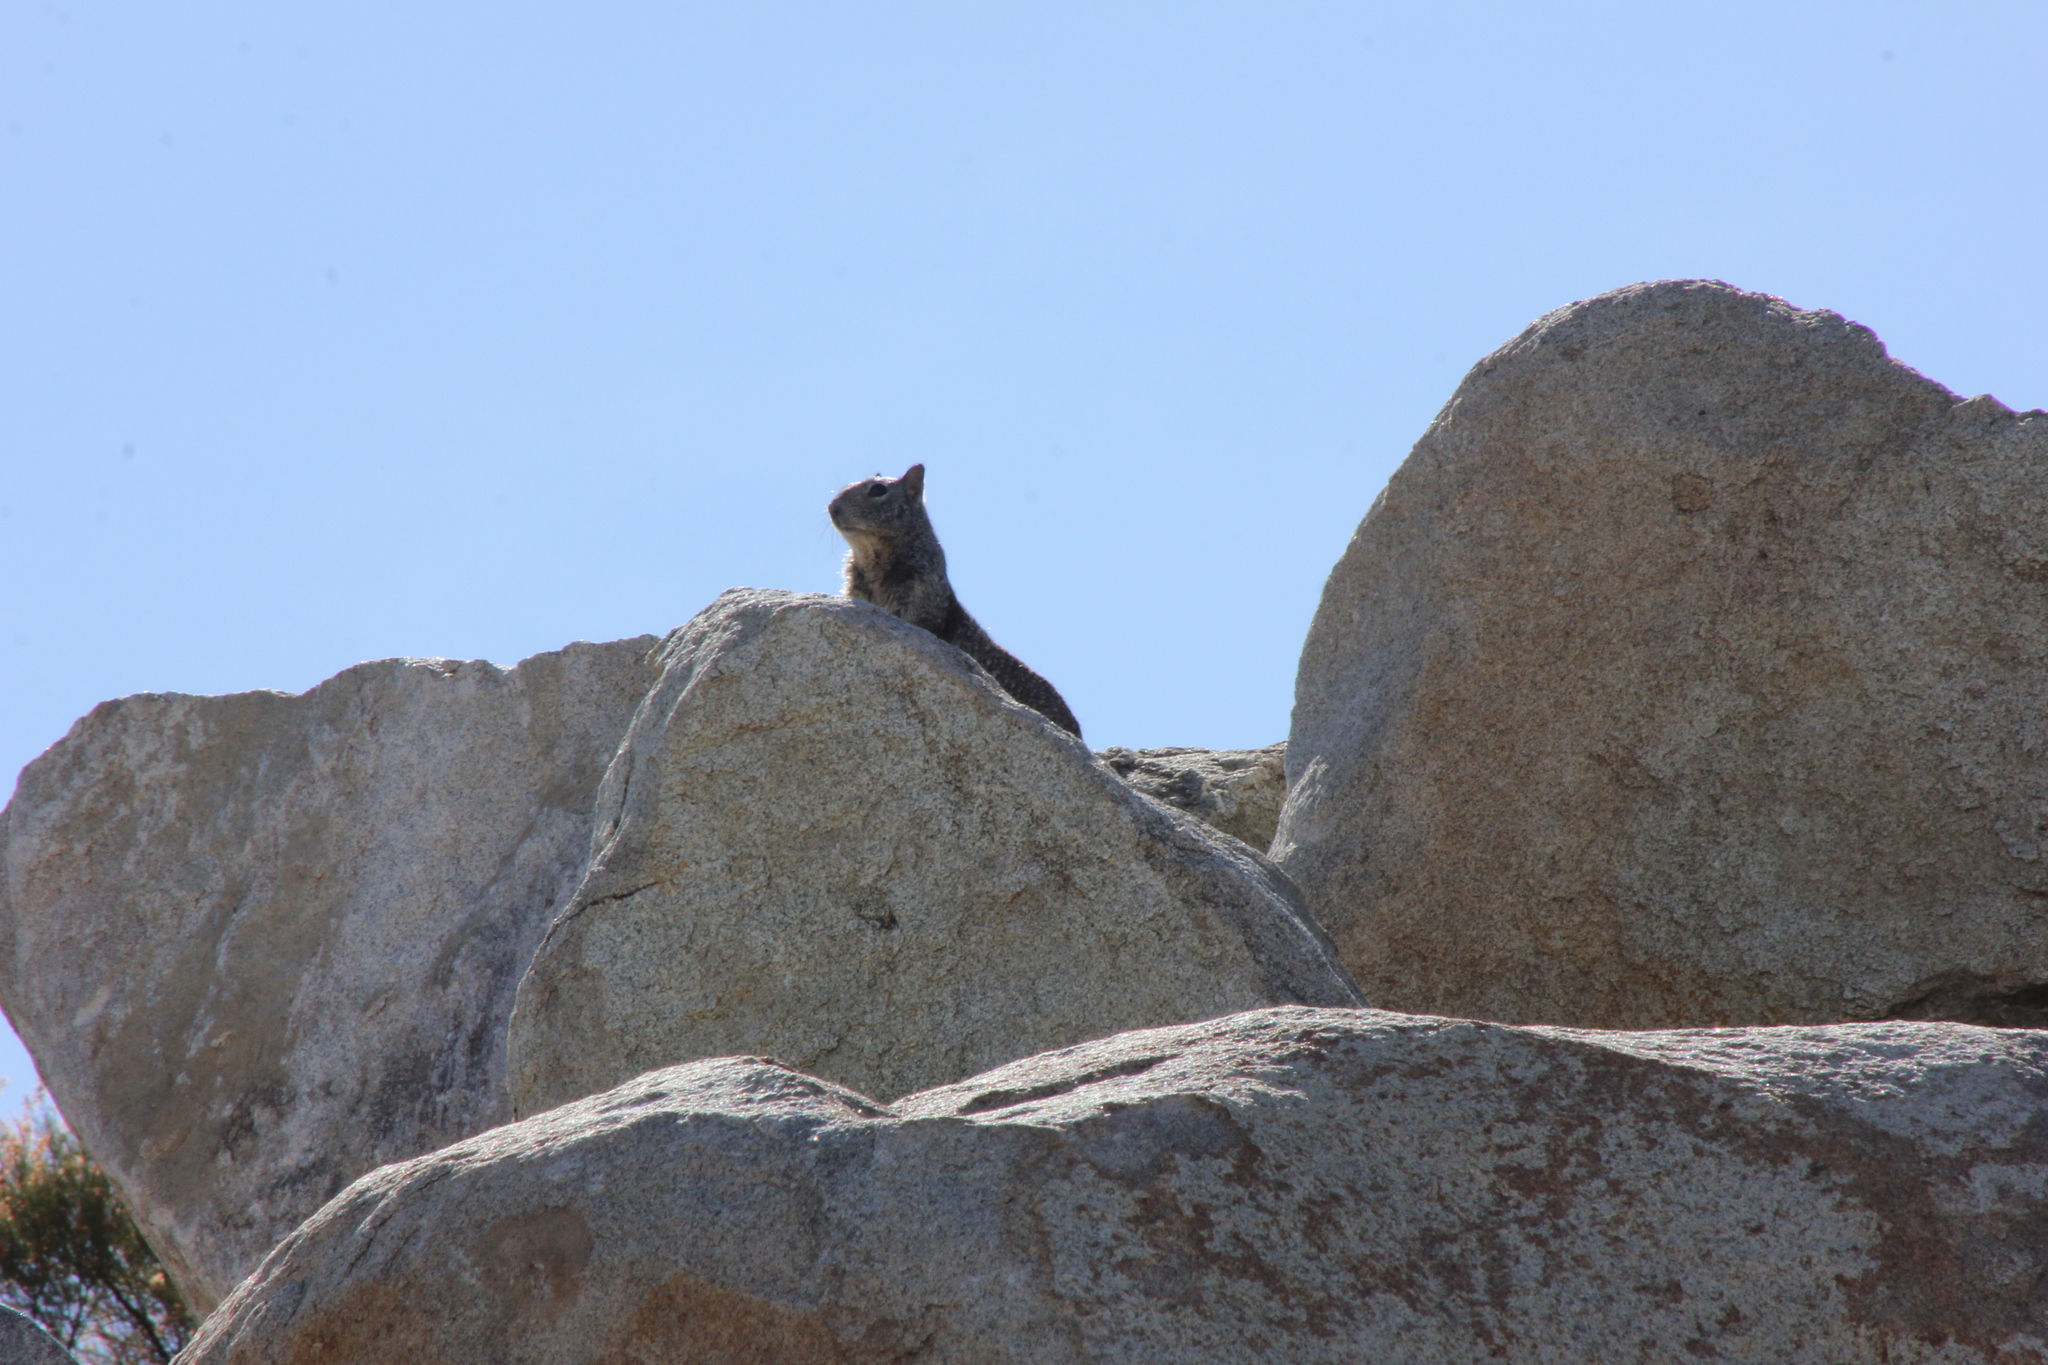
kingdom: Animalia
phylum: Chordata
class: Mammalia
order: Rodentia
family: Sciuridae
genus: Otospermophilus
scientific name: Otospermophilus beecheyi
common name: California ground squirrel
